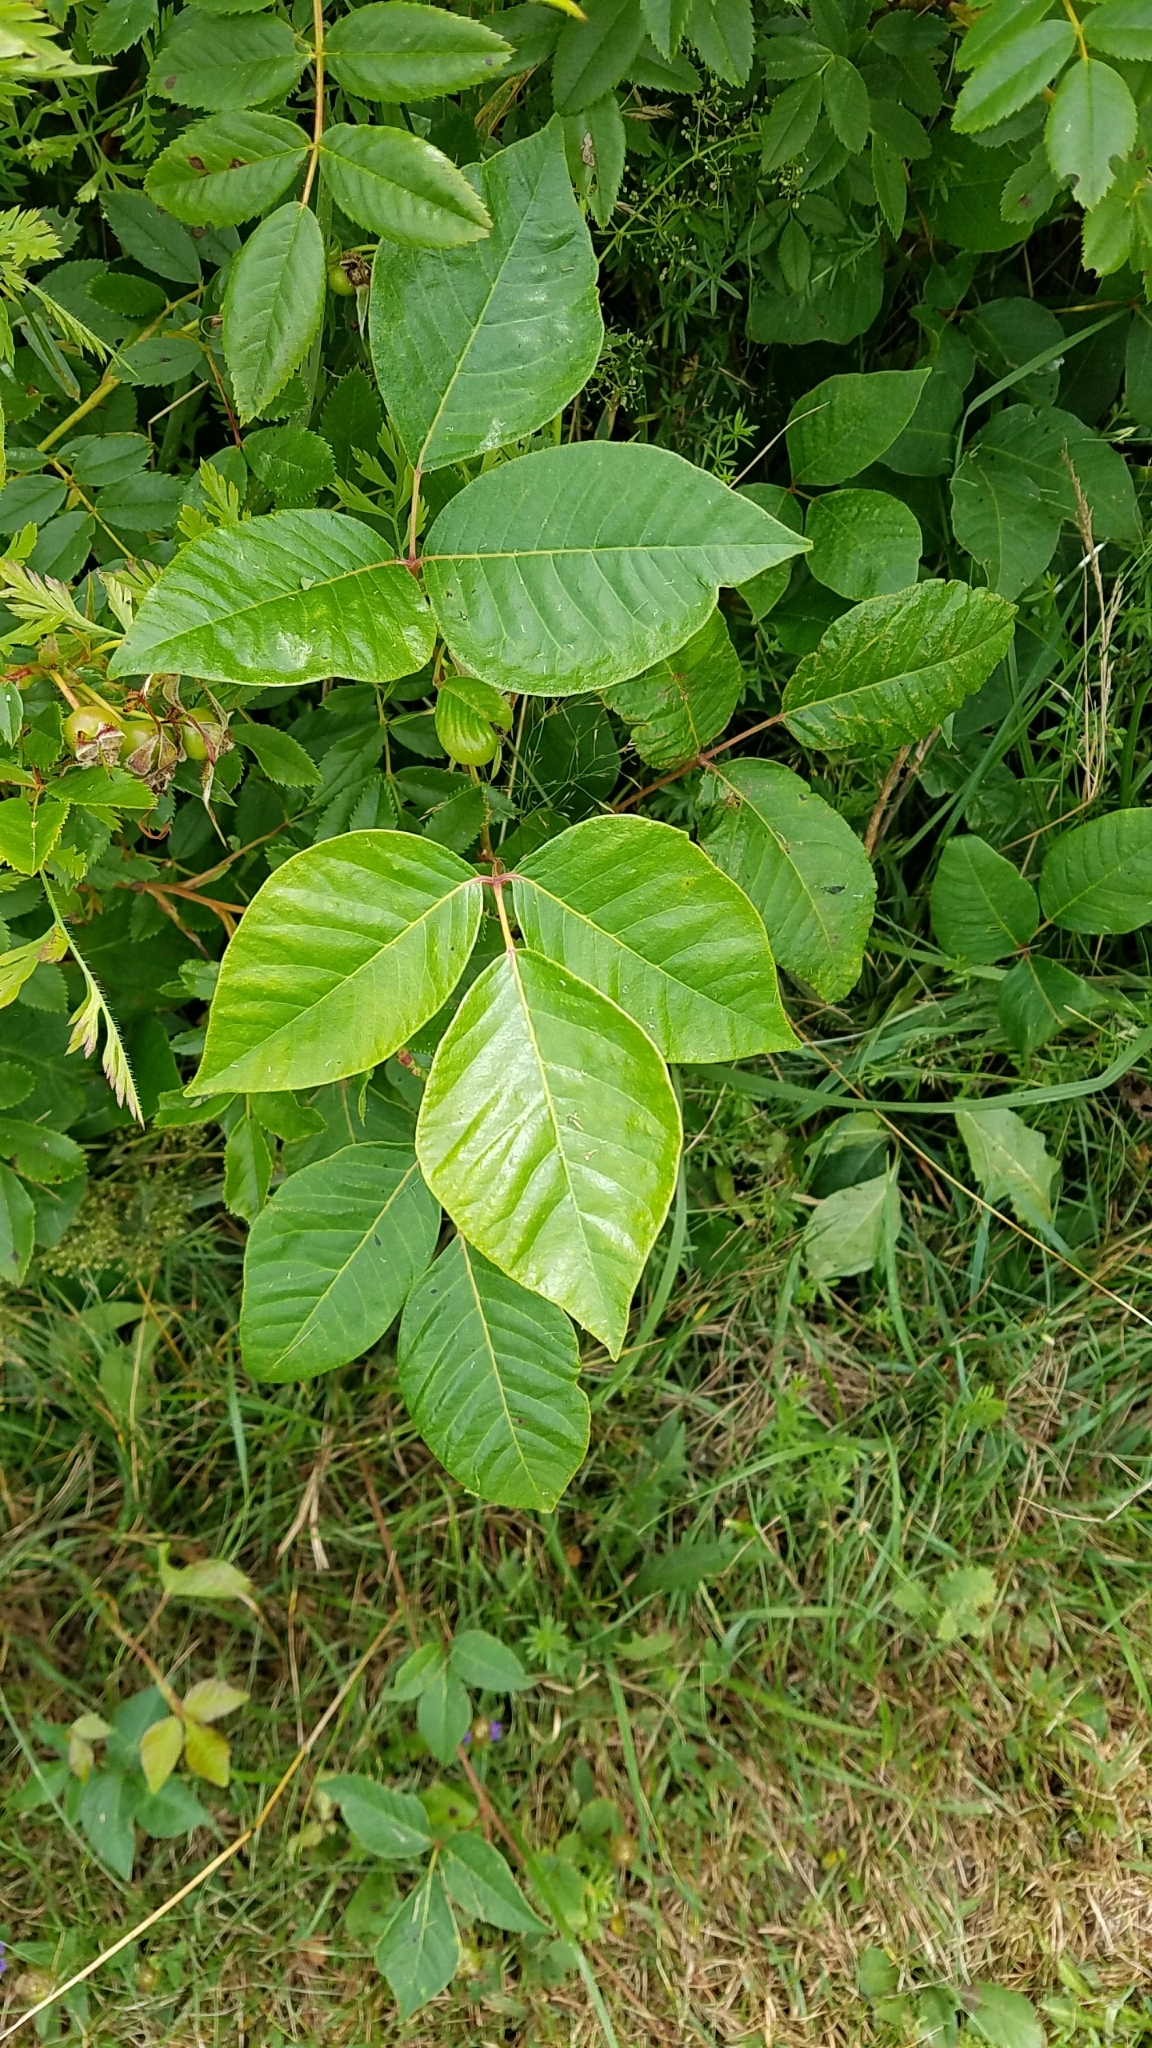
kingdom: Plantae
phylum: Tracheophyta
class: Magnoliopsida
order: Sapindales
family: Anacardiaceae
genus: Toxicodendron
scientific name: Toxicodendron radicans
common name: Poison ivy
